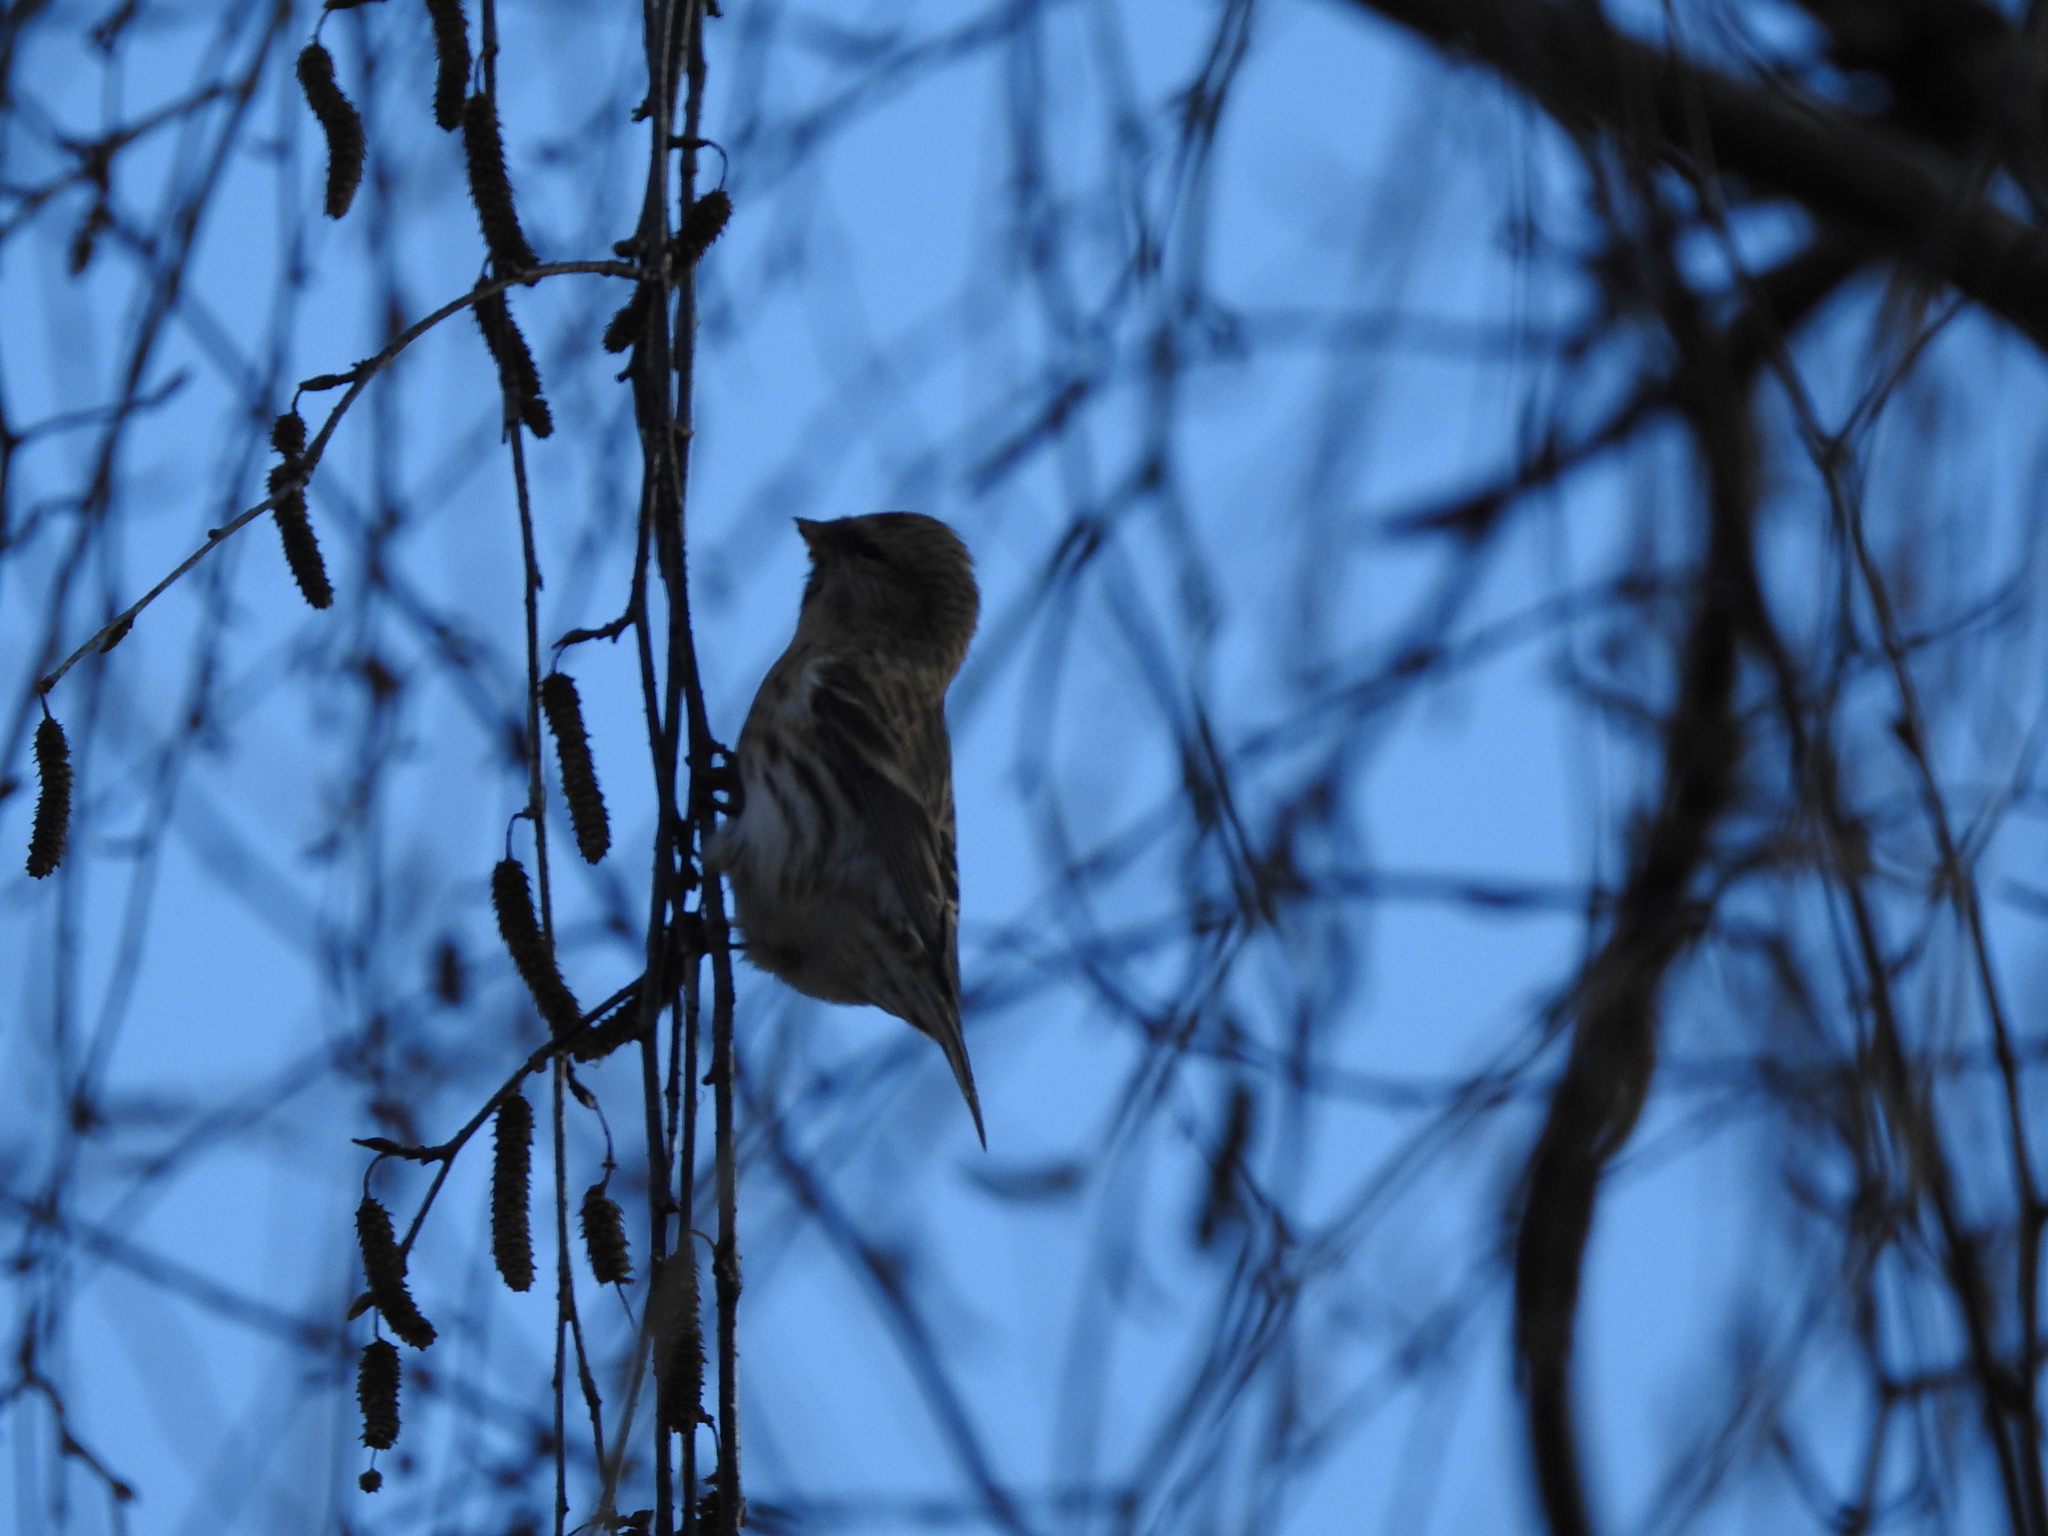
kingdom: Animalia
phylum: Chordata
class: Aves
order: Passeriformes
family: Fringillidae
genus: Acanthis
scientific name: Acanthis flammea
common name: Common redpoll
